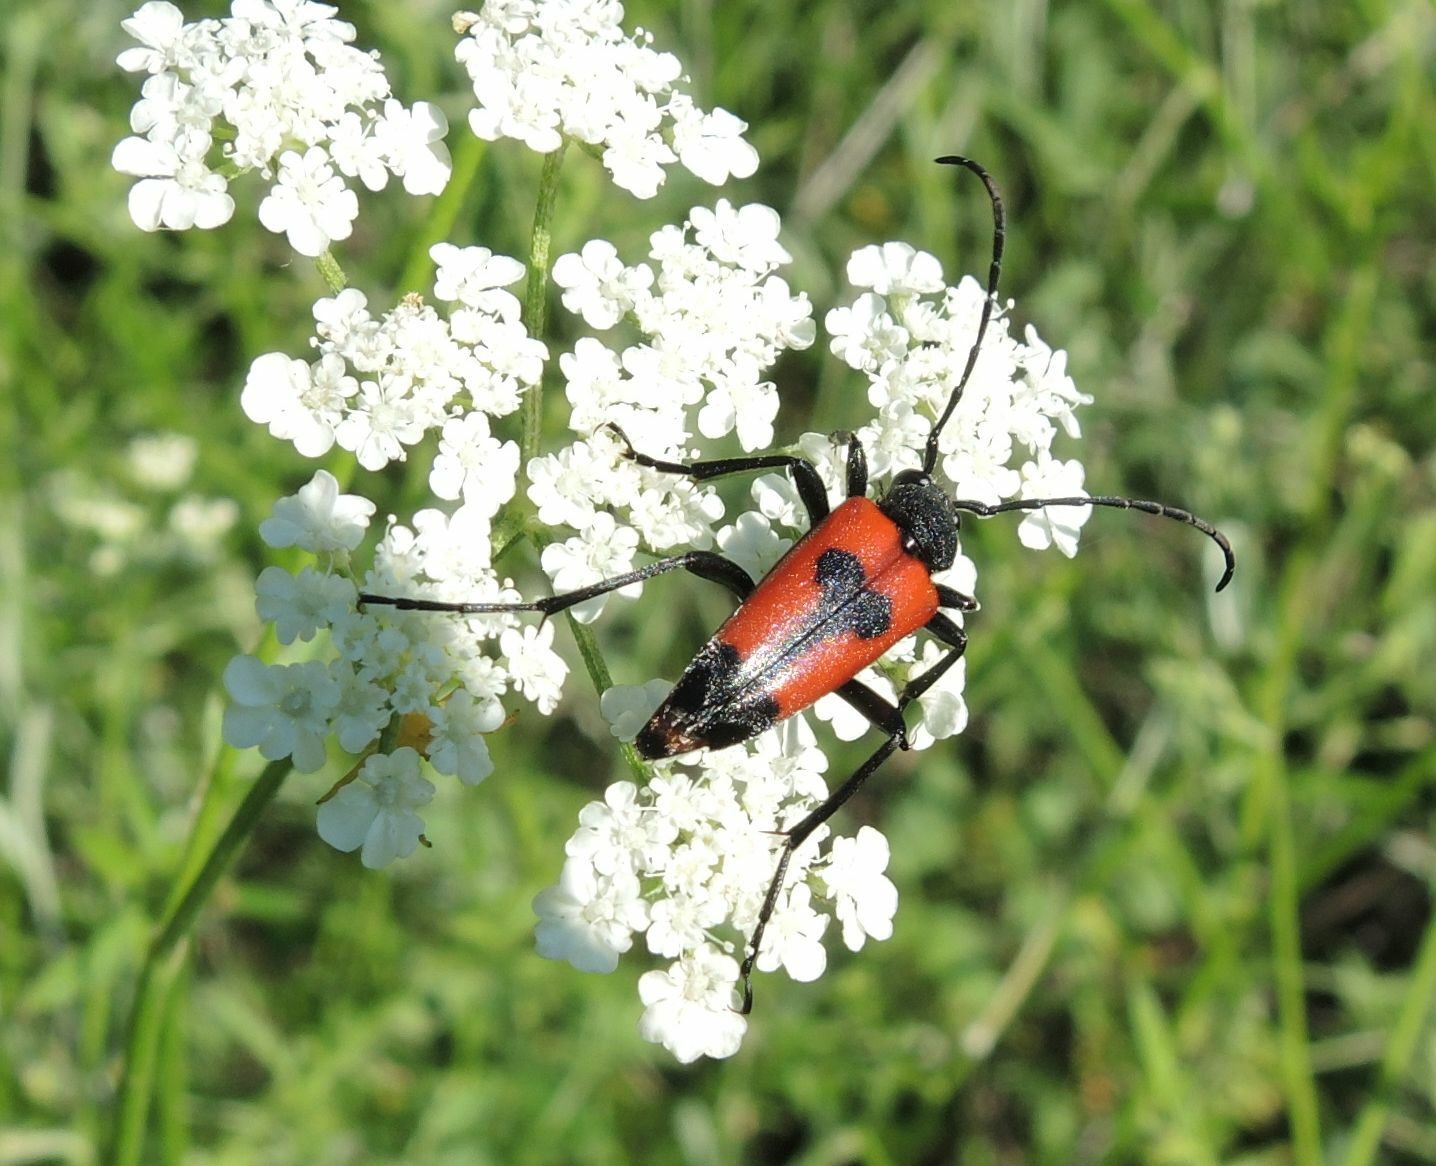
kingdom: Animalia
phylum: Arthropoda
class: Insecta
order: Coleoptera
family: Cerambycidae
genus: Stictoleptura
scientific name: Stictoleptura cordigera
